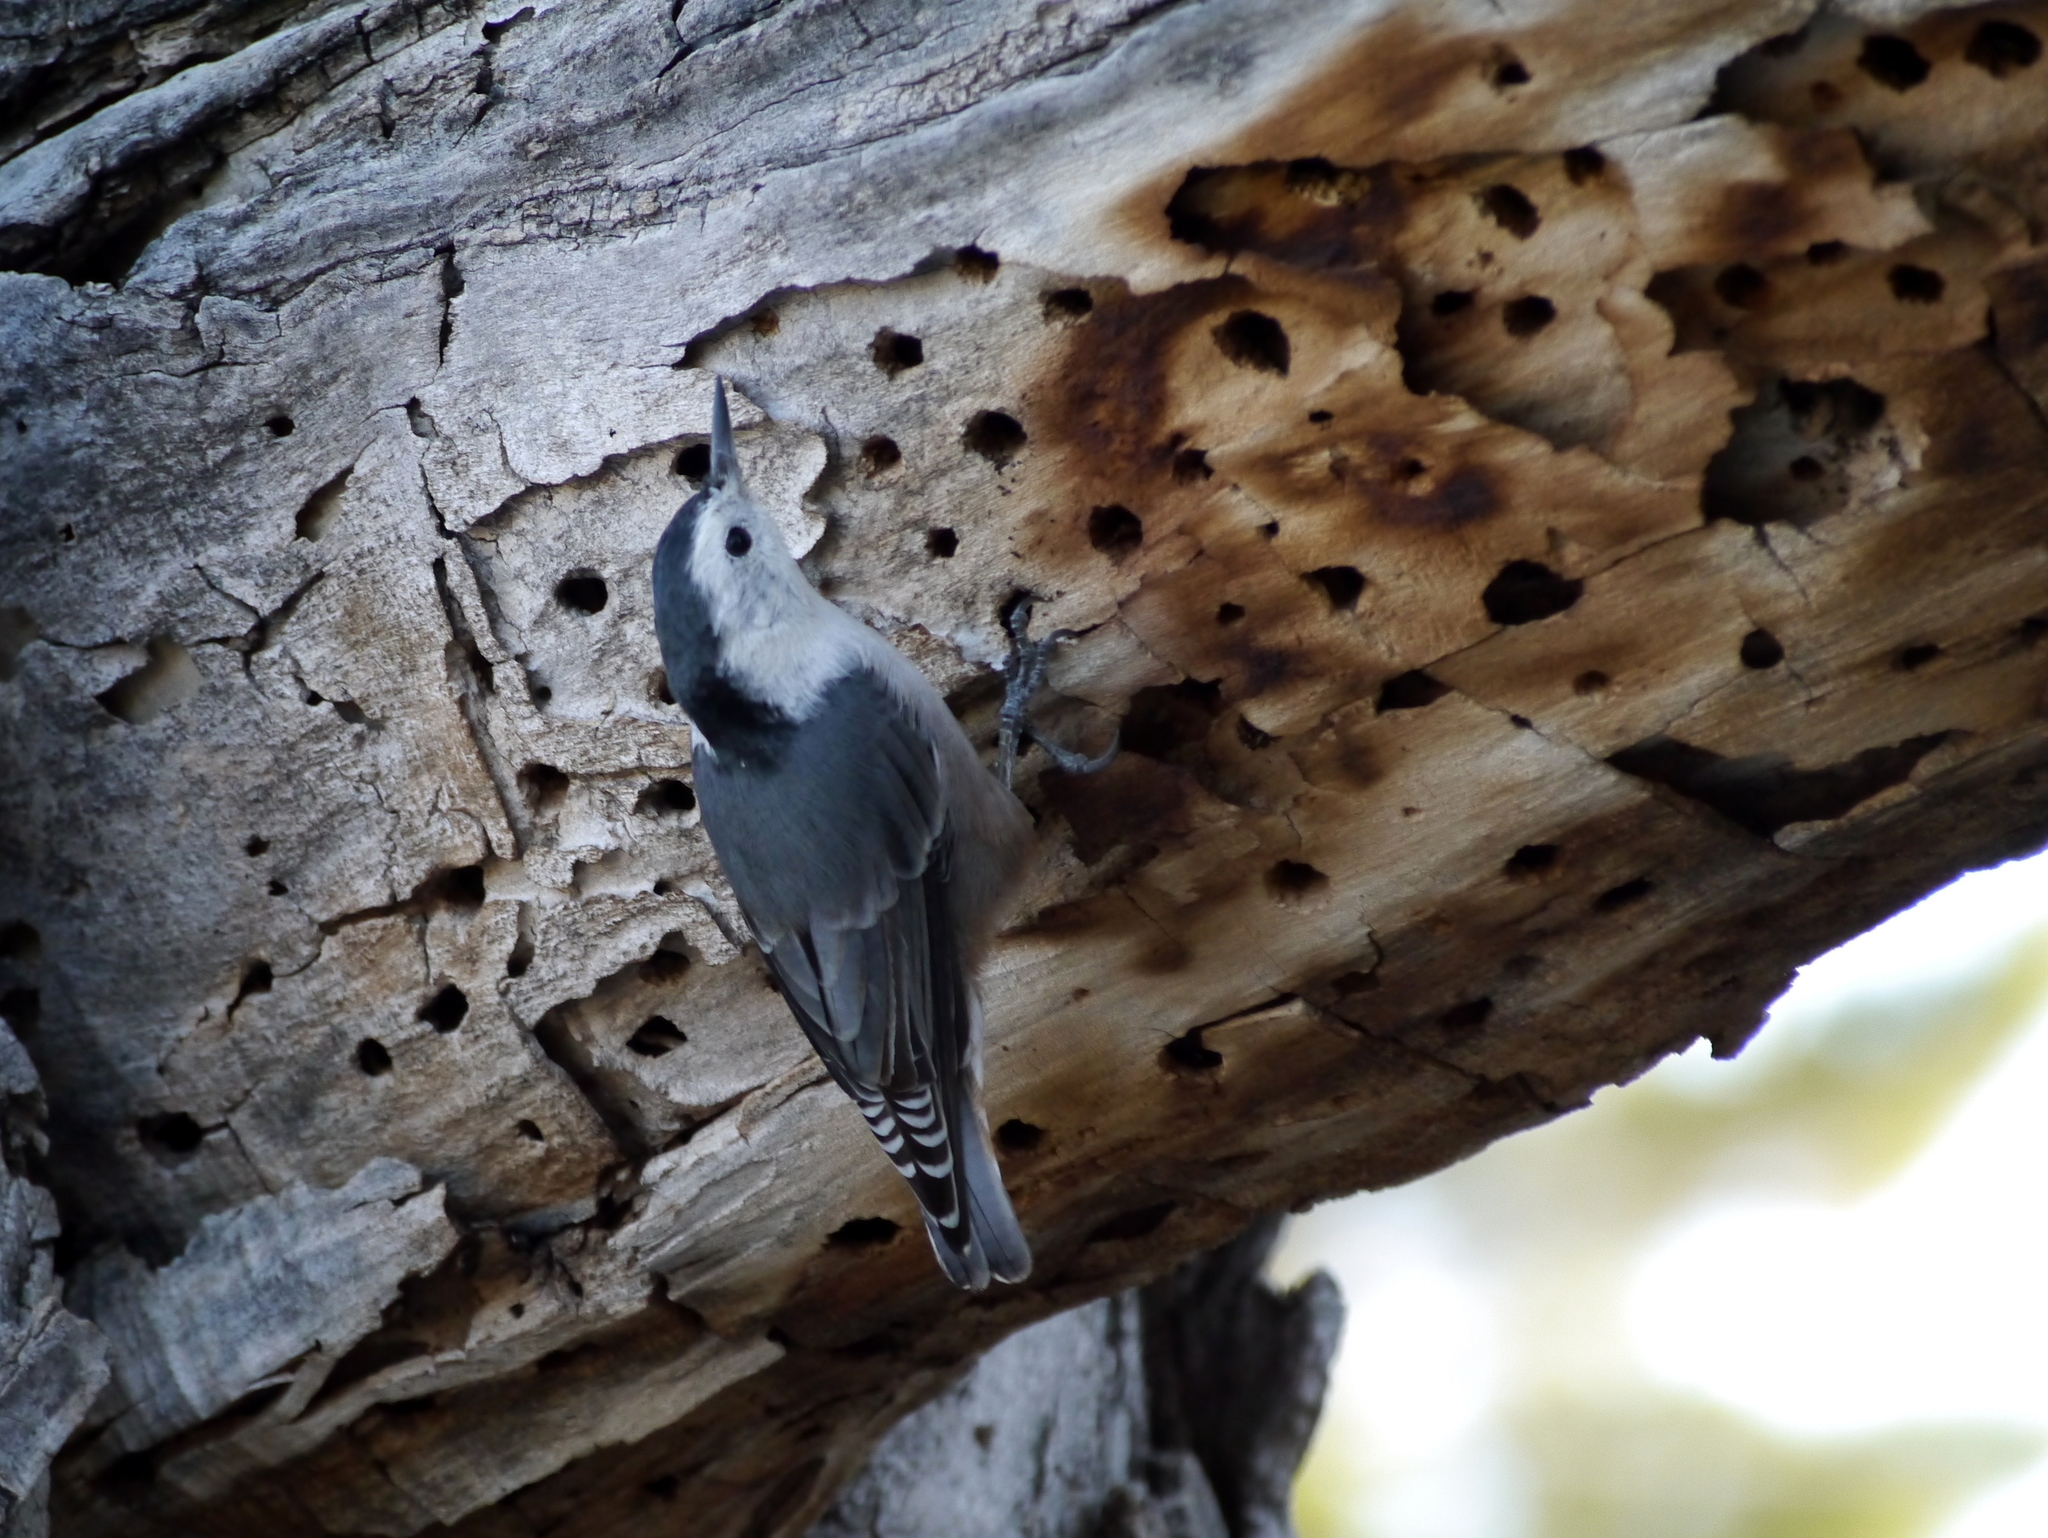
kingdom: Animalia
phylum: Chordata
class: Aves
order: Passeriformes
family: Sittidae
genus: Sitta
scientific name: Sitta carolinensis
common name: White-breasted nuthatch
